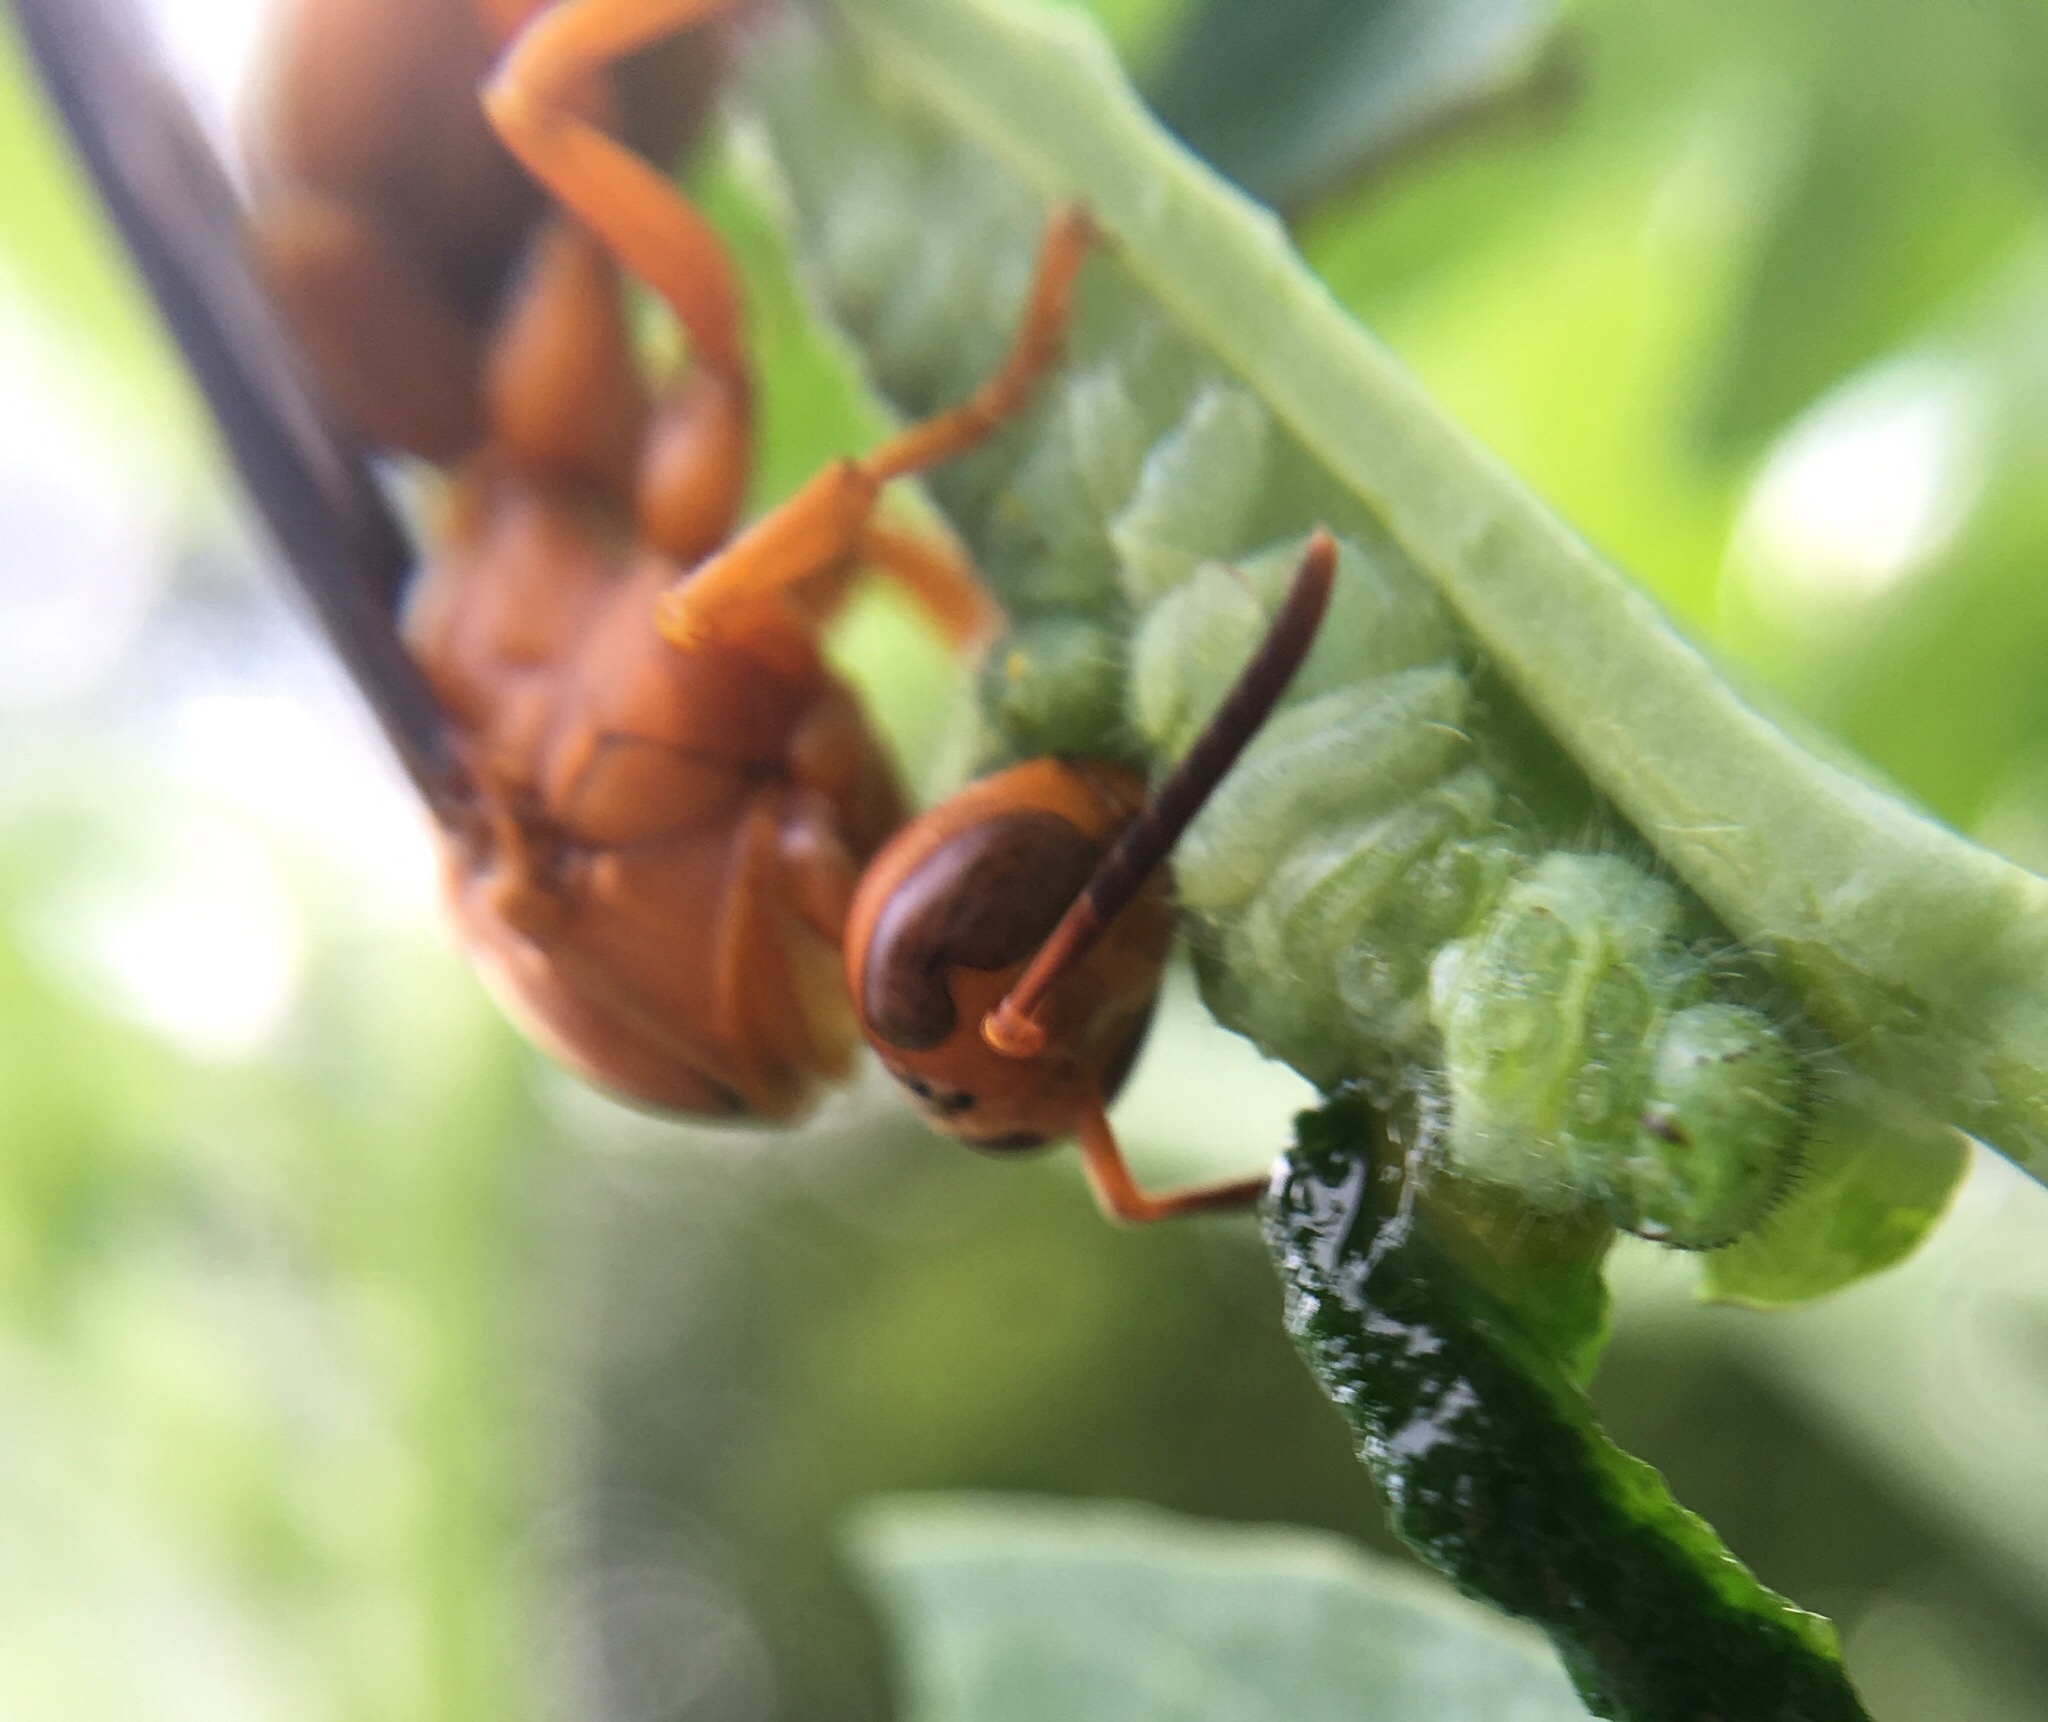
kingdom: Animalia
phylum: Arthropoda
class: Insecta
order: Hymenoptera
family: Vespidae
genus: Fuscopolistes
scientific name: Fuscopolistes
